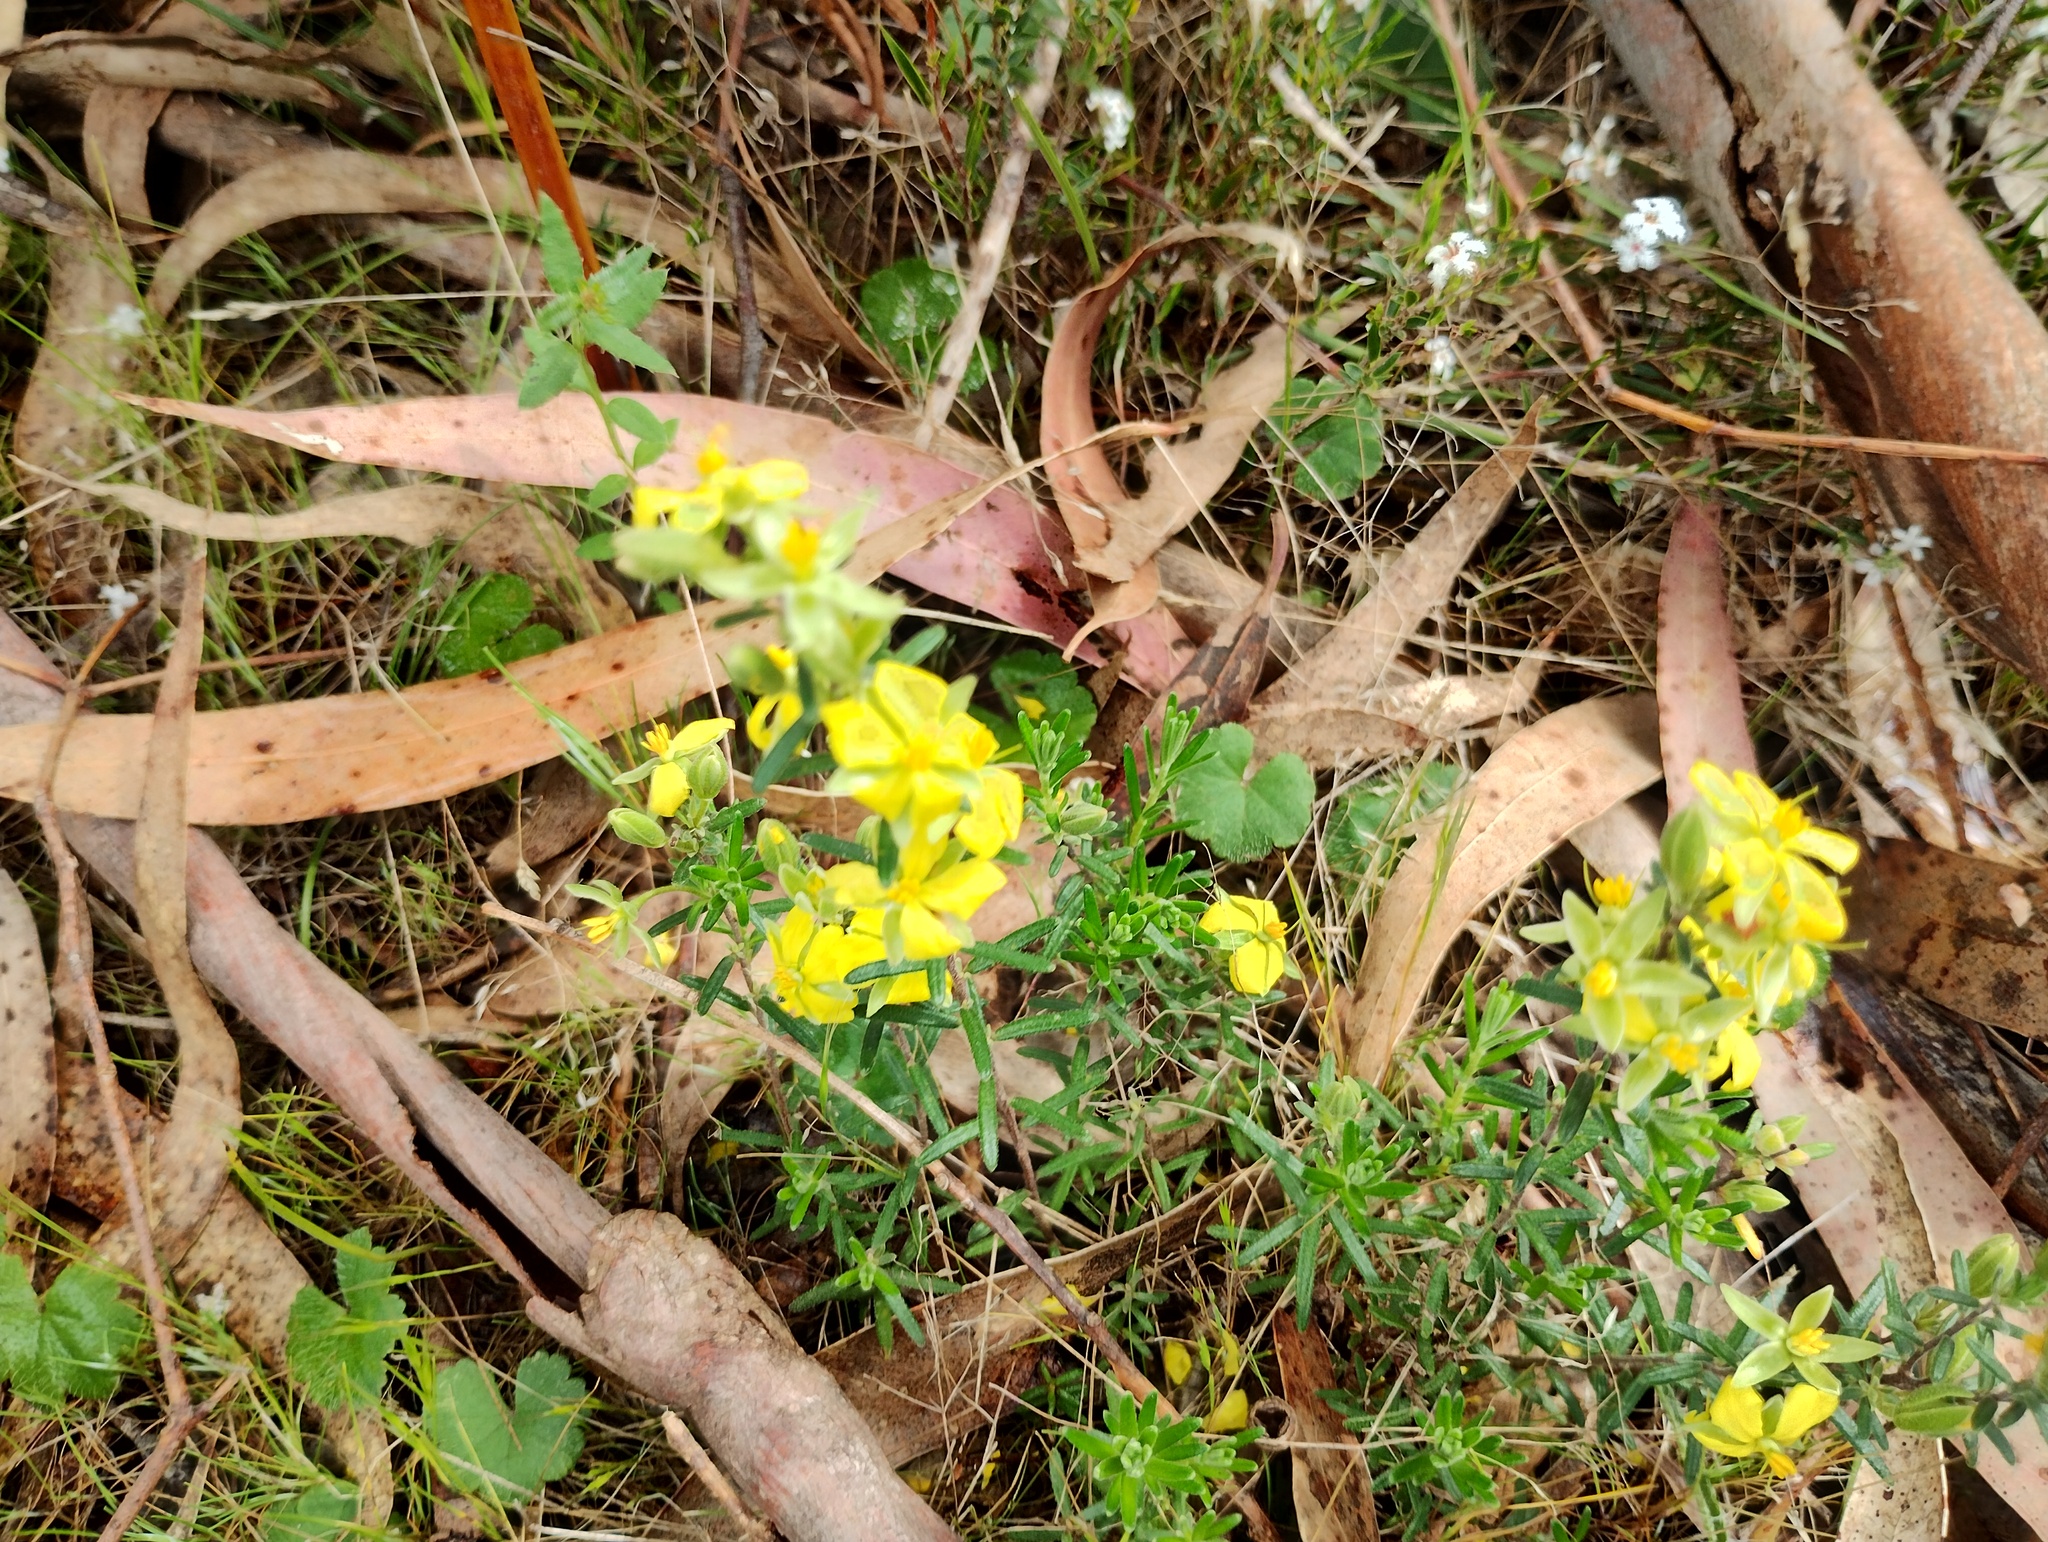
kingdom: Plantae
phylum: Tracheophyta
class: Magnoliopsida
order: Dilleniales
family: Dilleniaceae
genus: Hibbertia
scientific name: Hibbertia riparia
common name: Erect guinea-flower
